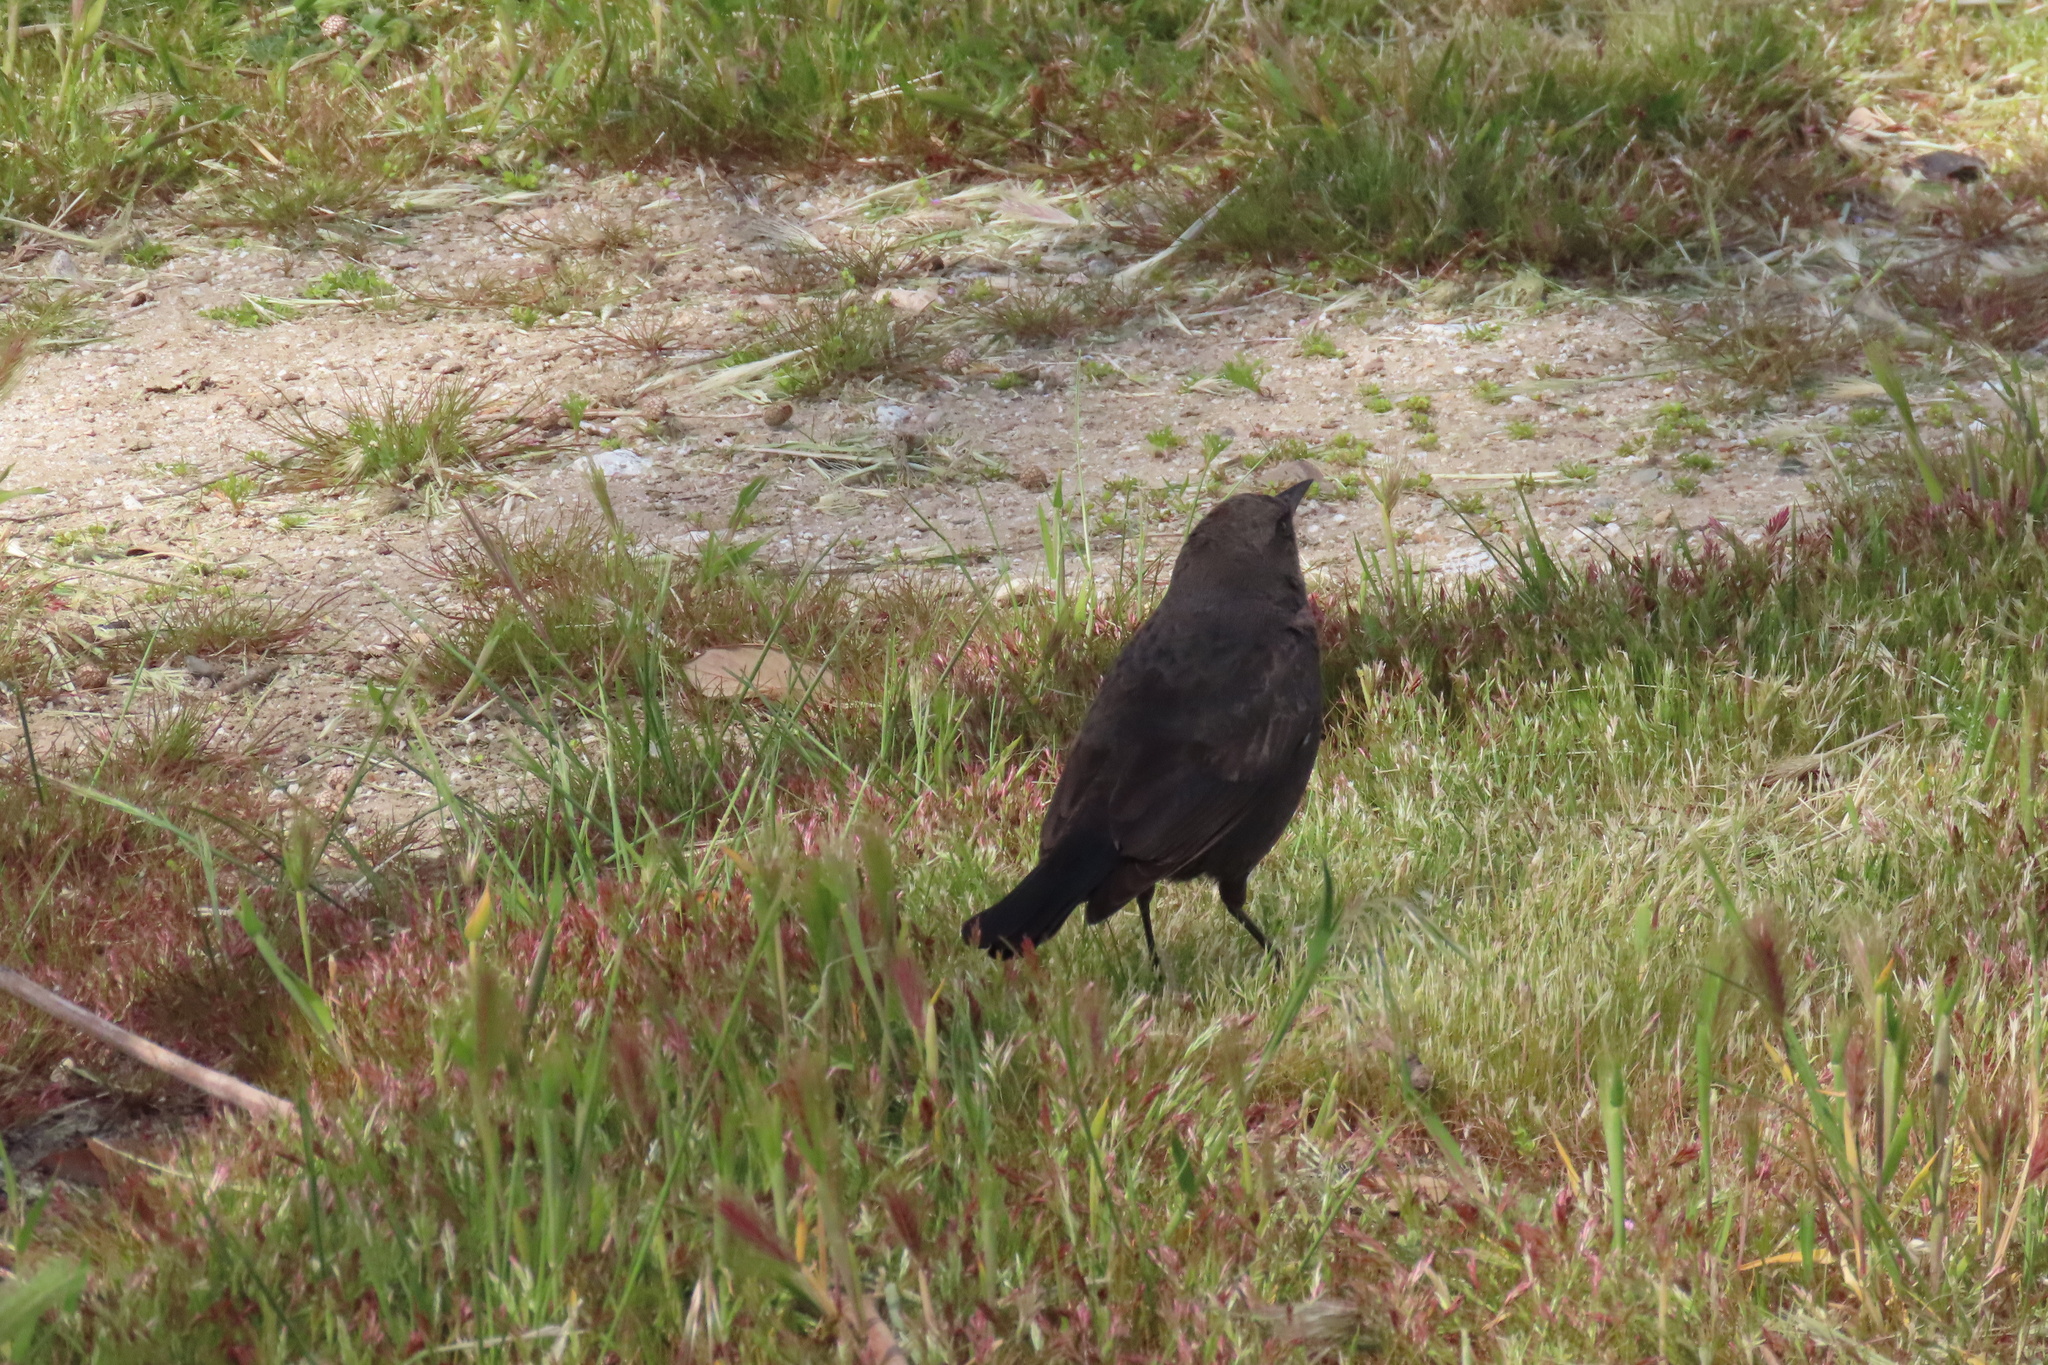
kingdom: Animalia
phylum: Chordata
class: Aves
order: Passeriformes
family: Icteridae
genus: Euphagus
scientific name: Euphagus cyanocephalus
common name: Brewer's blackbird
